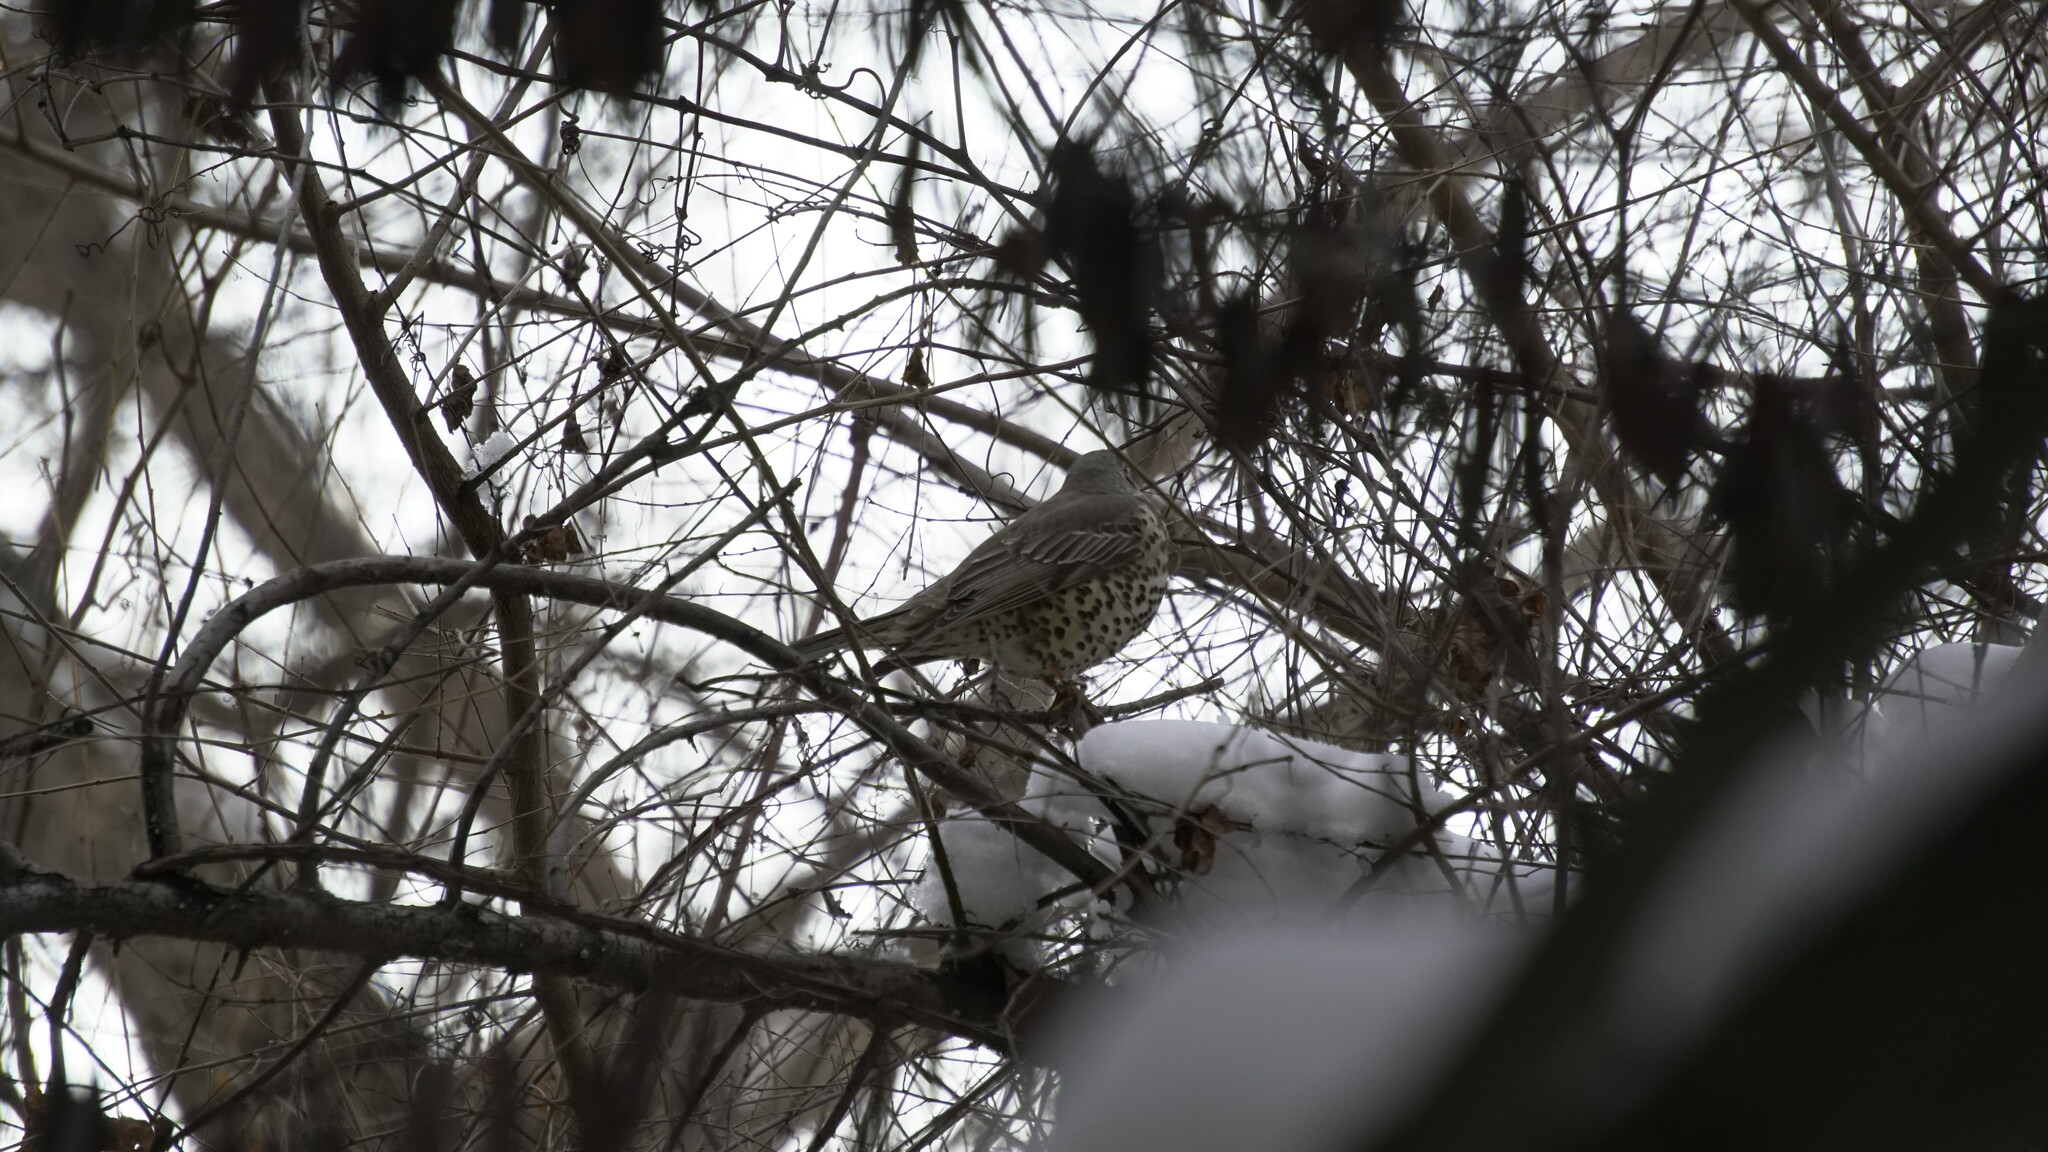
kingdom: Animalia
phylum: Chordata
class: Aves
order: Passeriformes
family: Turdidae
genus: Turdus
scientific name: Turdus viscivorus
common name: Mistle thrush
